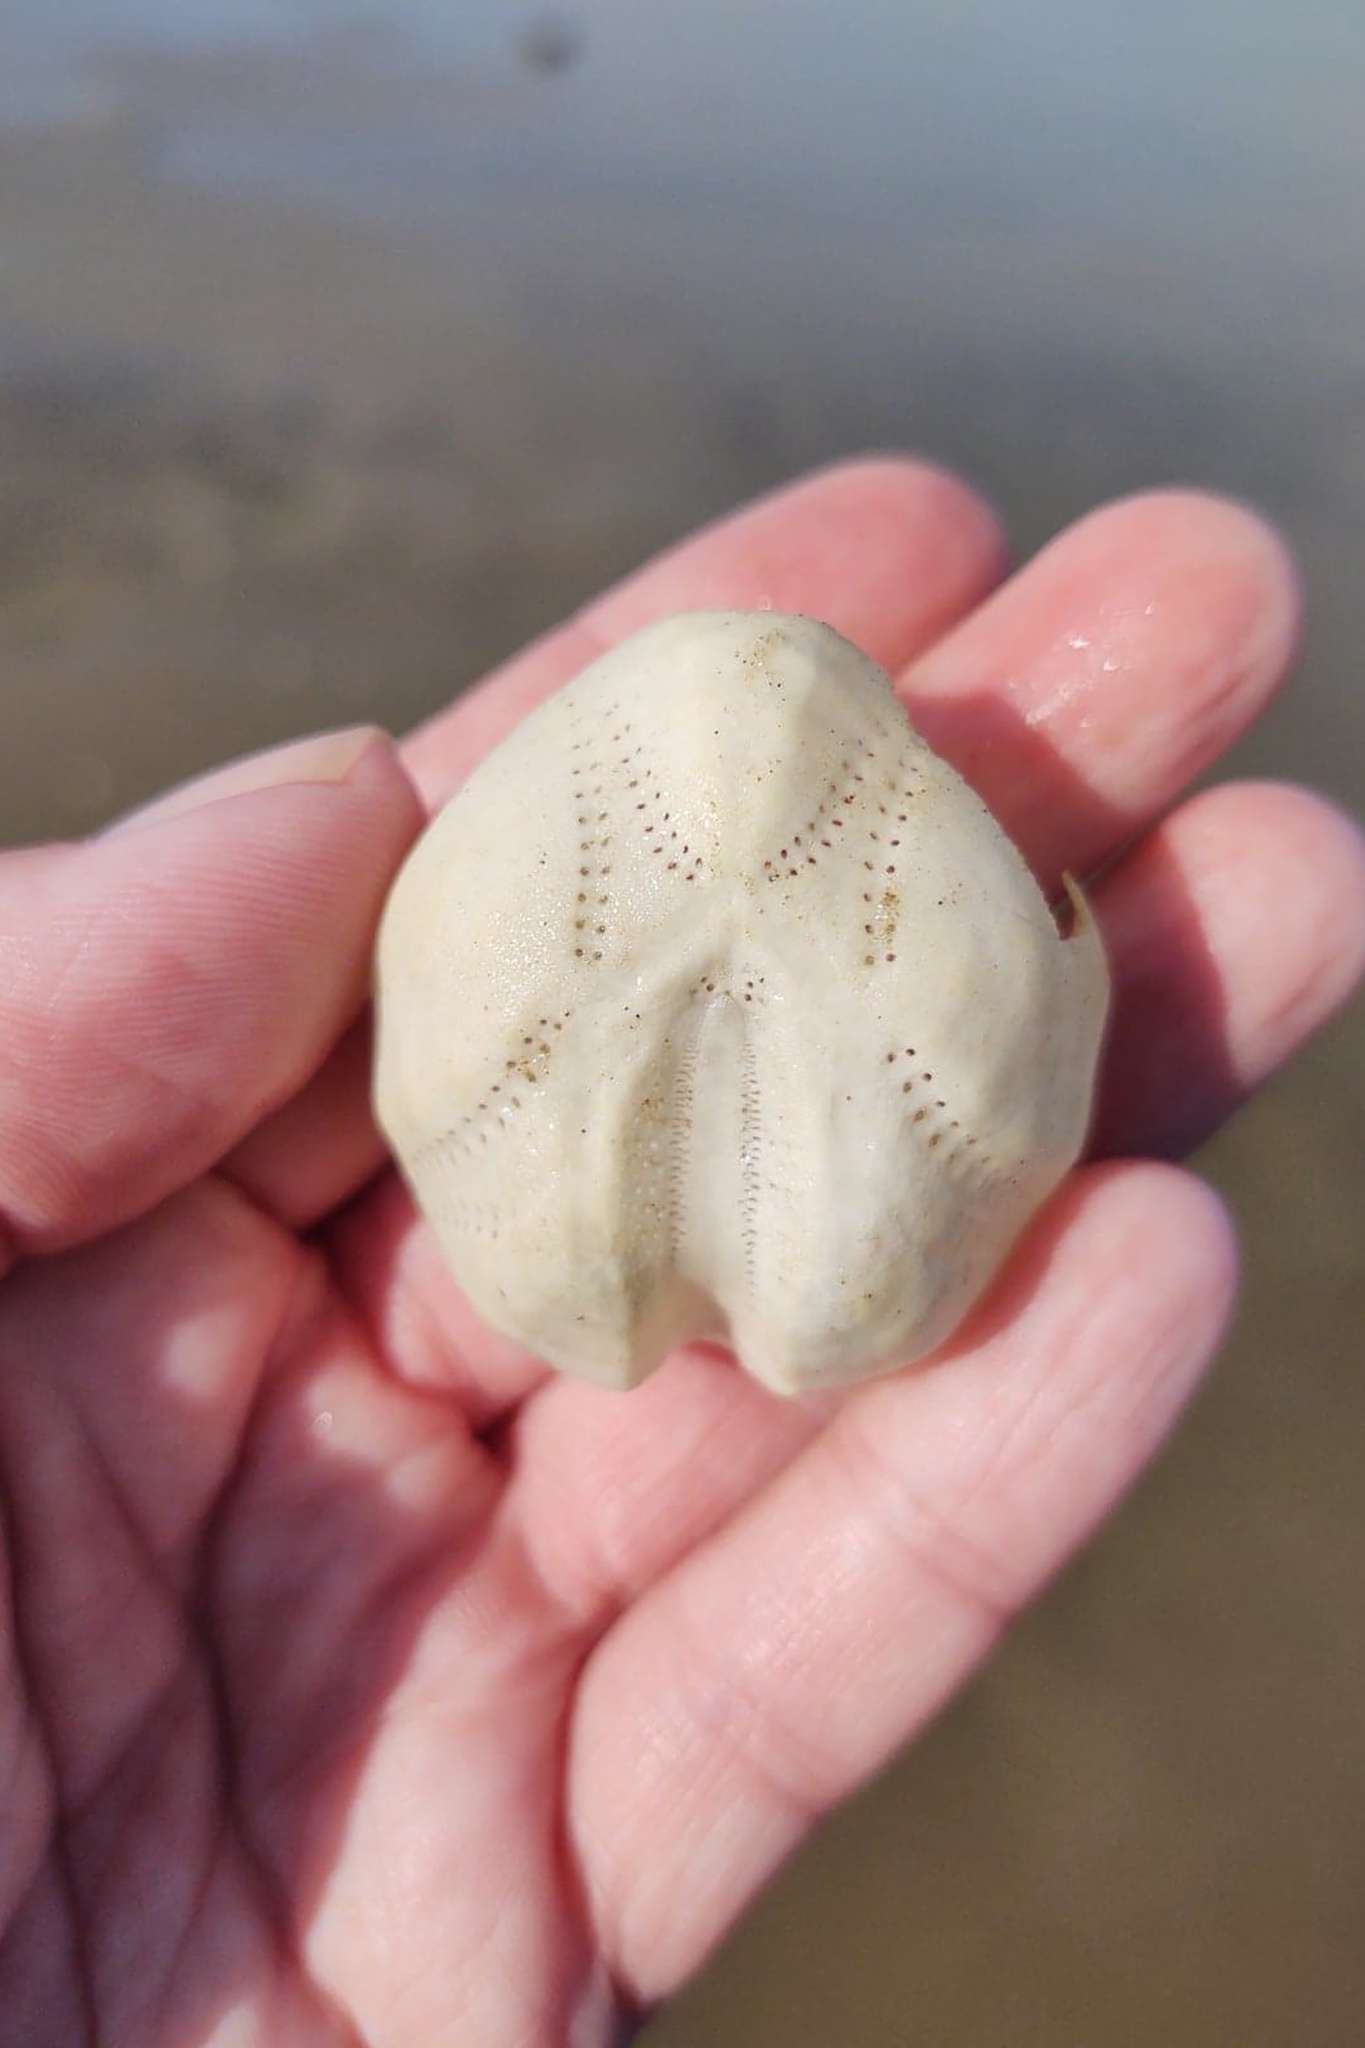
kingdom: Animalia
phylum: Echinodermata
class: Echinoidea
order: Spatangoida
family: Loveniidae
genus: Echinocardium
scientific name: Echinocardium cordatum
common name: Heart-urchin
